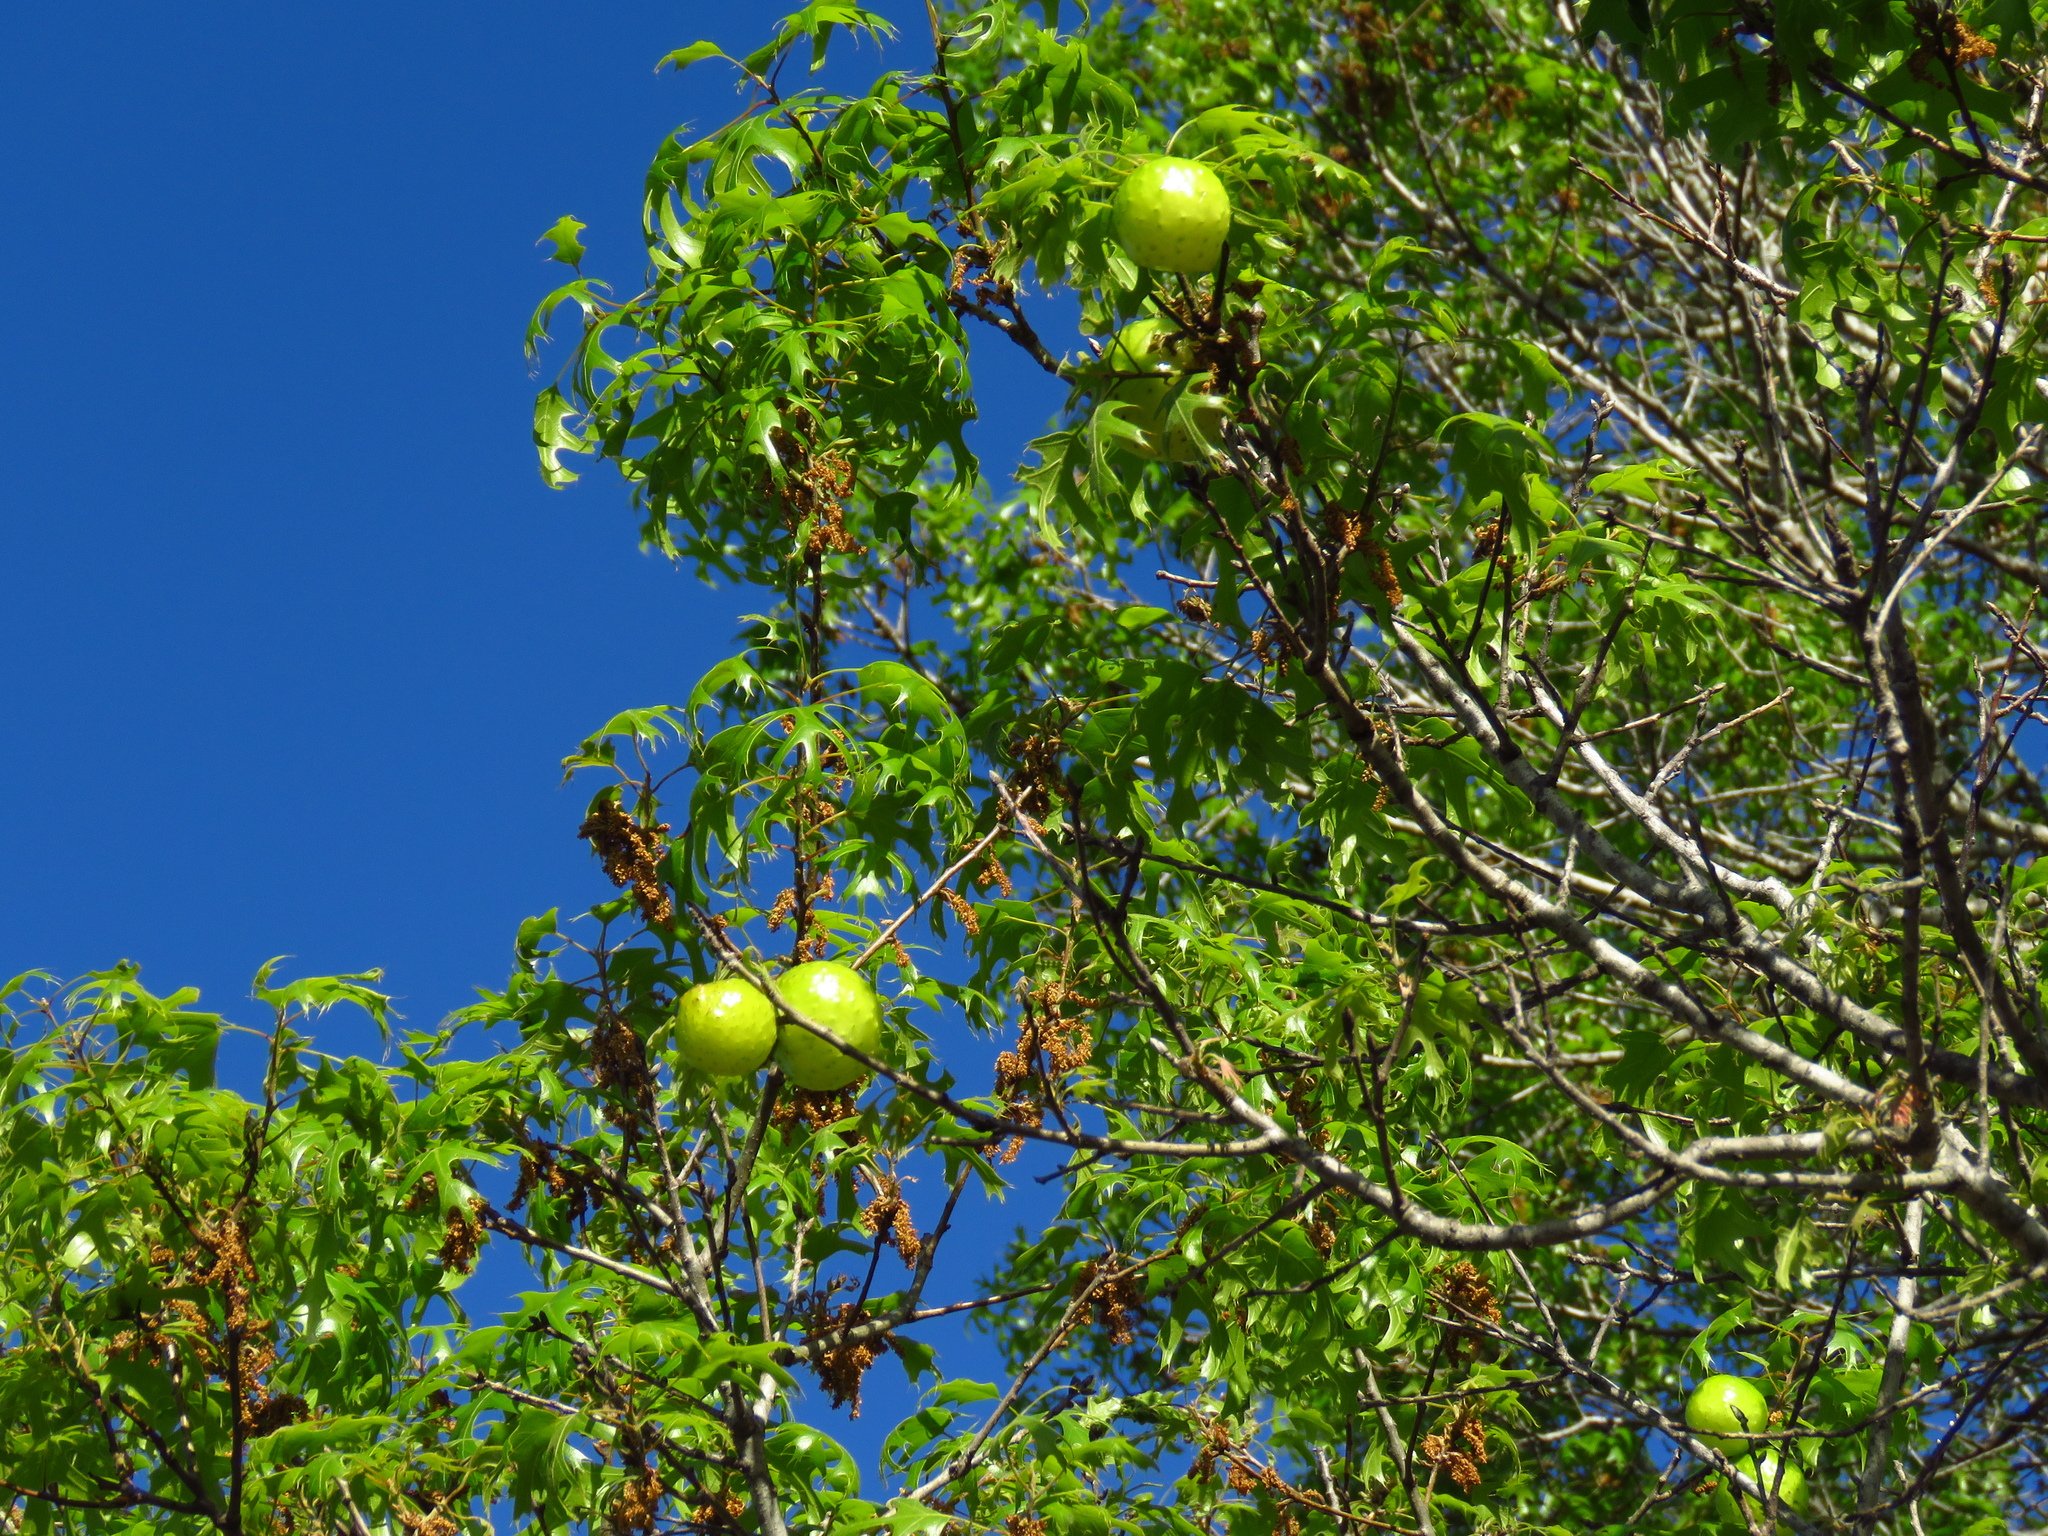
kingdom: Animalia
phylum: Arthropoda
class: Insecta
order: Hymenoptera
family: Cynipidae
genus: Amphibolips
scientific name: Amphibolips
